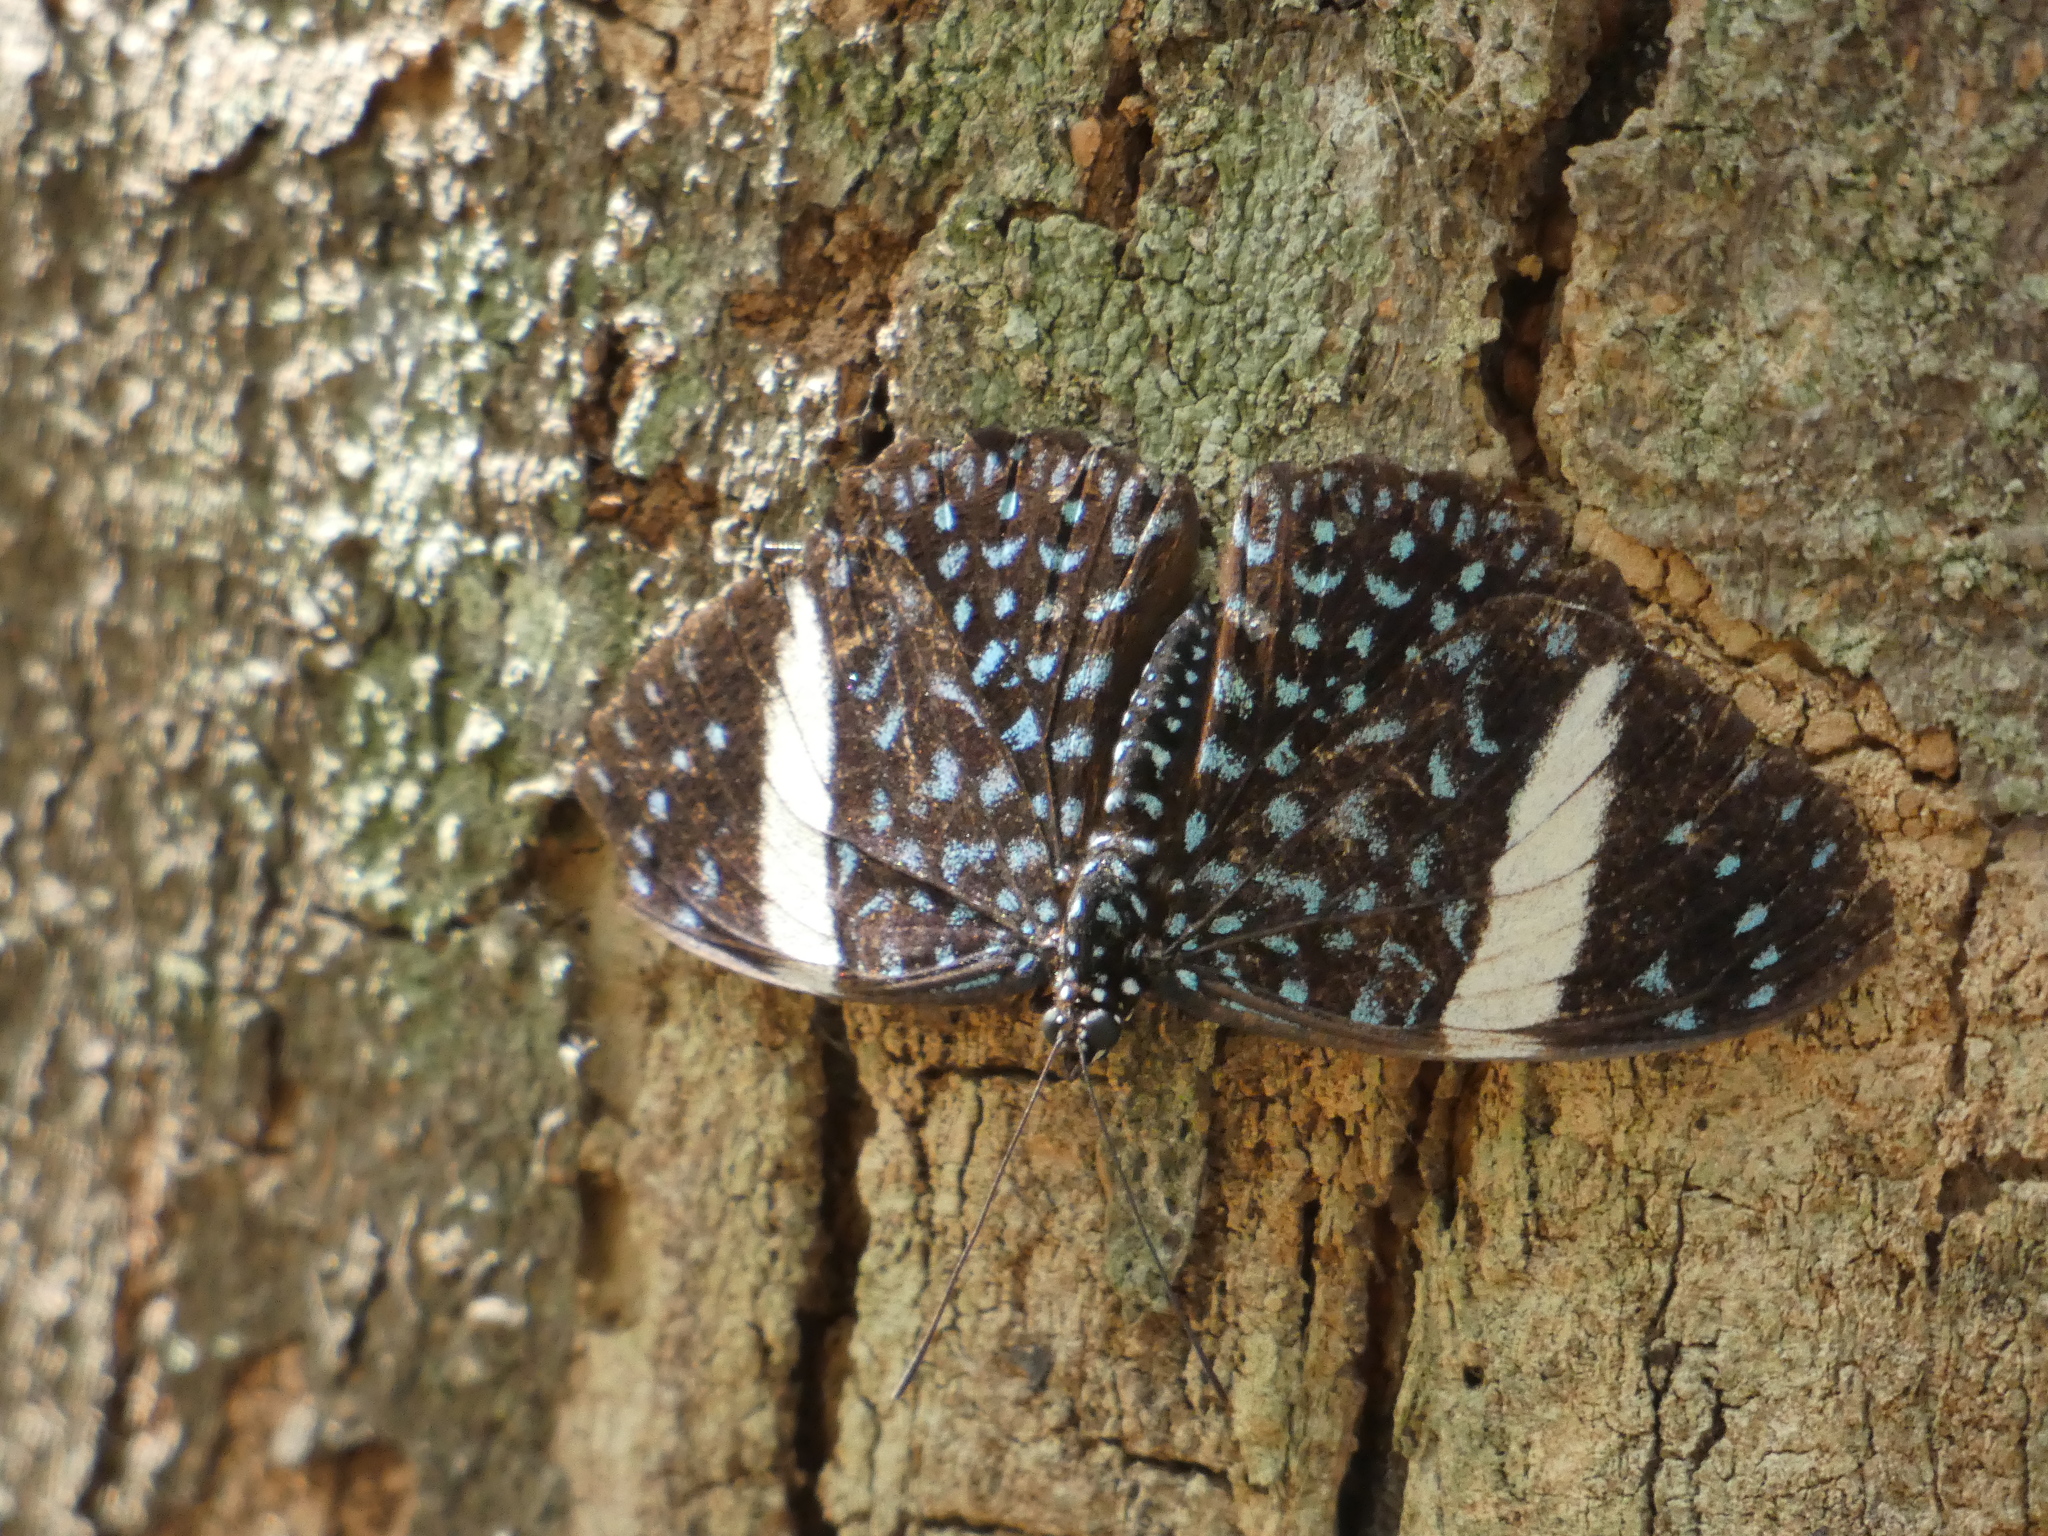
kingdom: Animalia
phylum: Arthropoda
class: Insecta
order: Lepidoptera
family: Nymphalidae
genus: Hamadryas
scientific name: Hamadryas laodamia
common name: Starry night cracker
